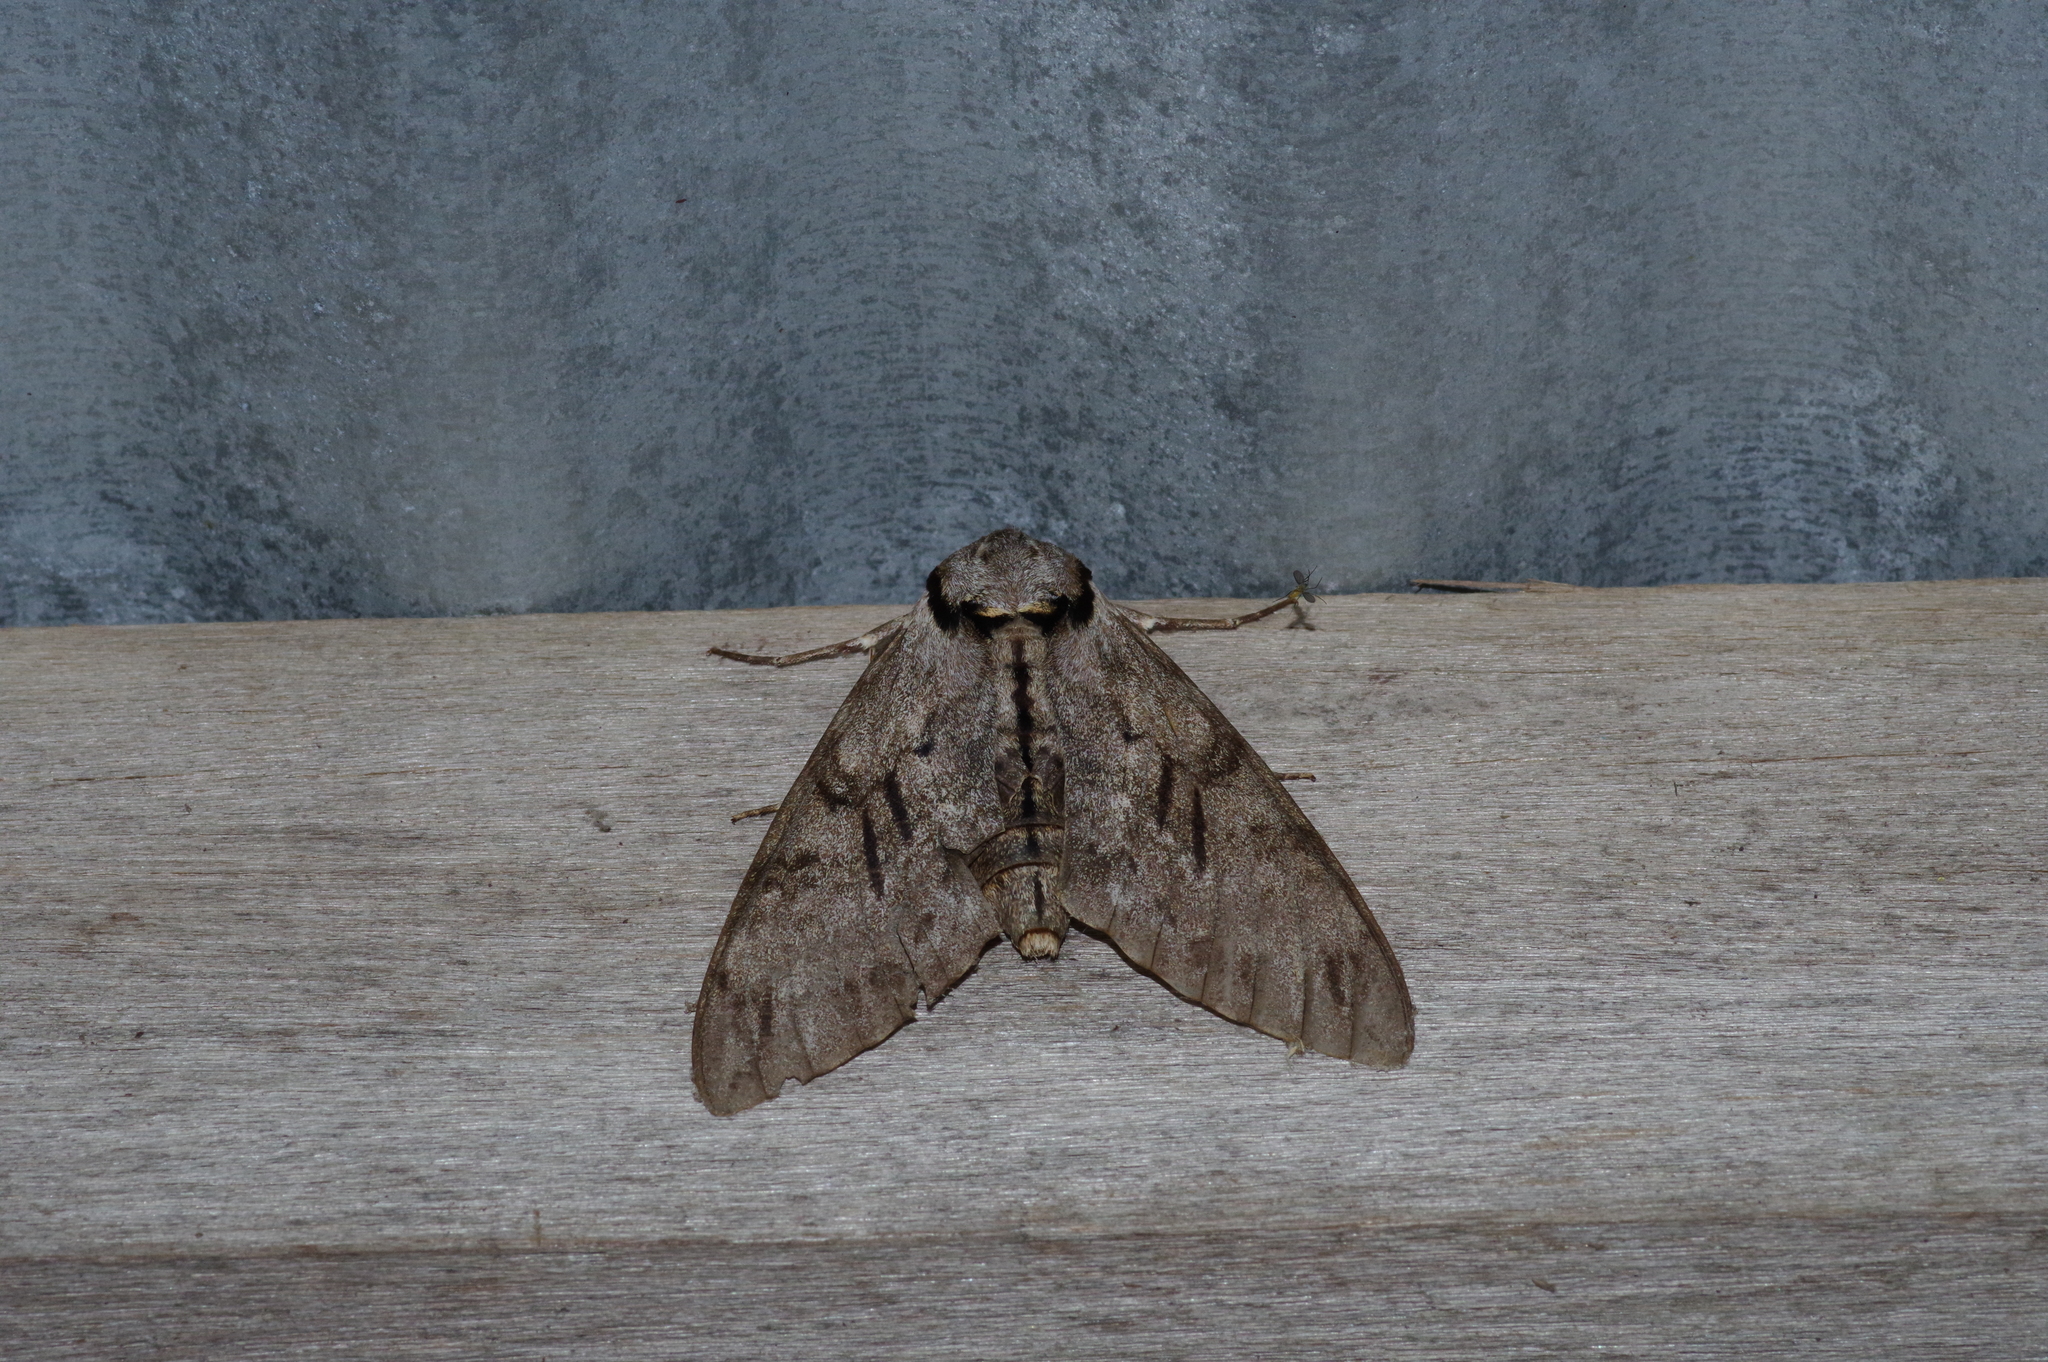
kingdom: Animalia
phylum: Arthropoda
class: Insecta
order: Lepidoptera
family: Sphingidae
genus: Psilogramma
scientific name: Psilogramma increta
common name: Gray hawk moth
